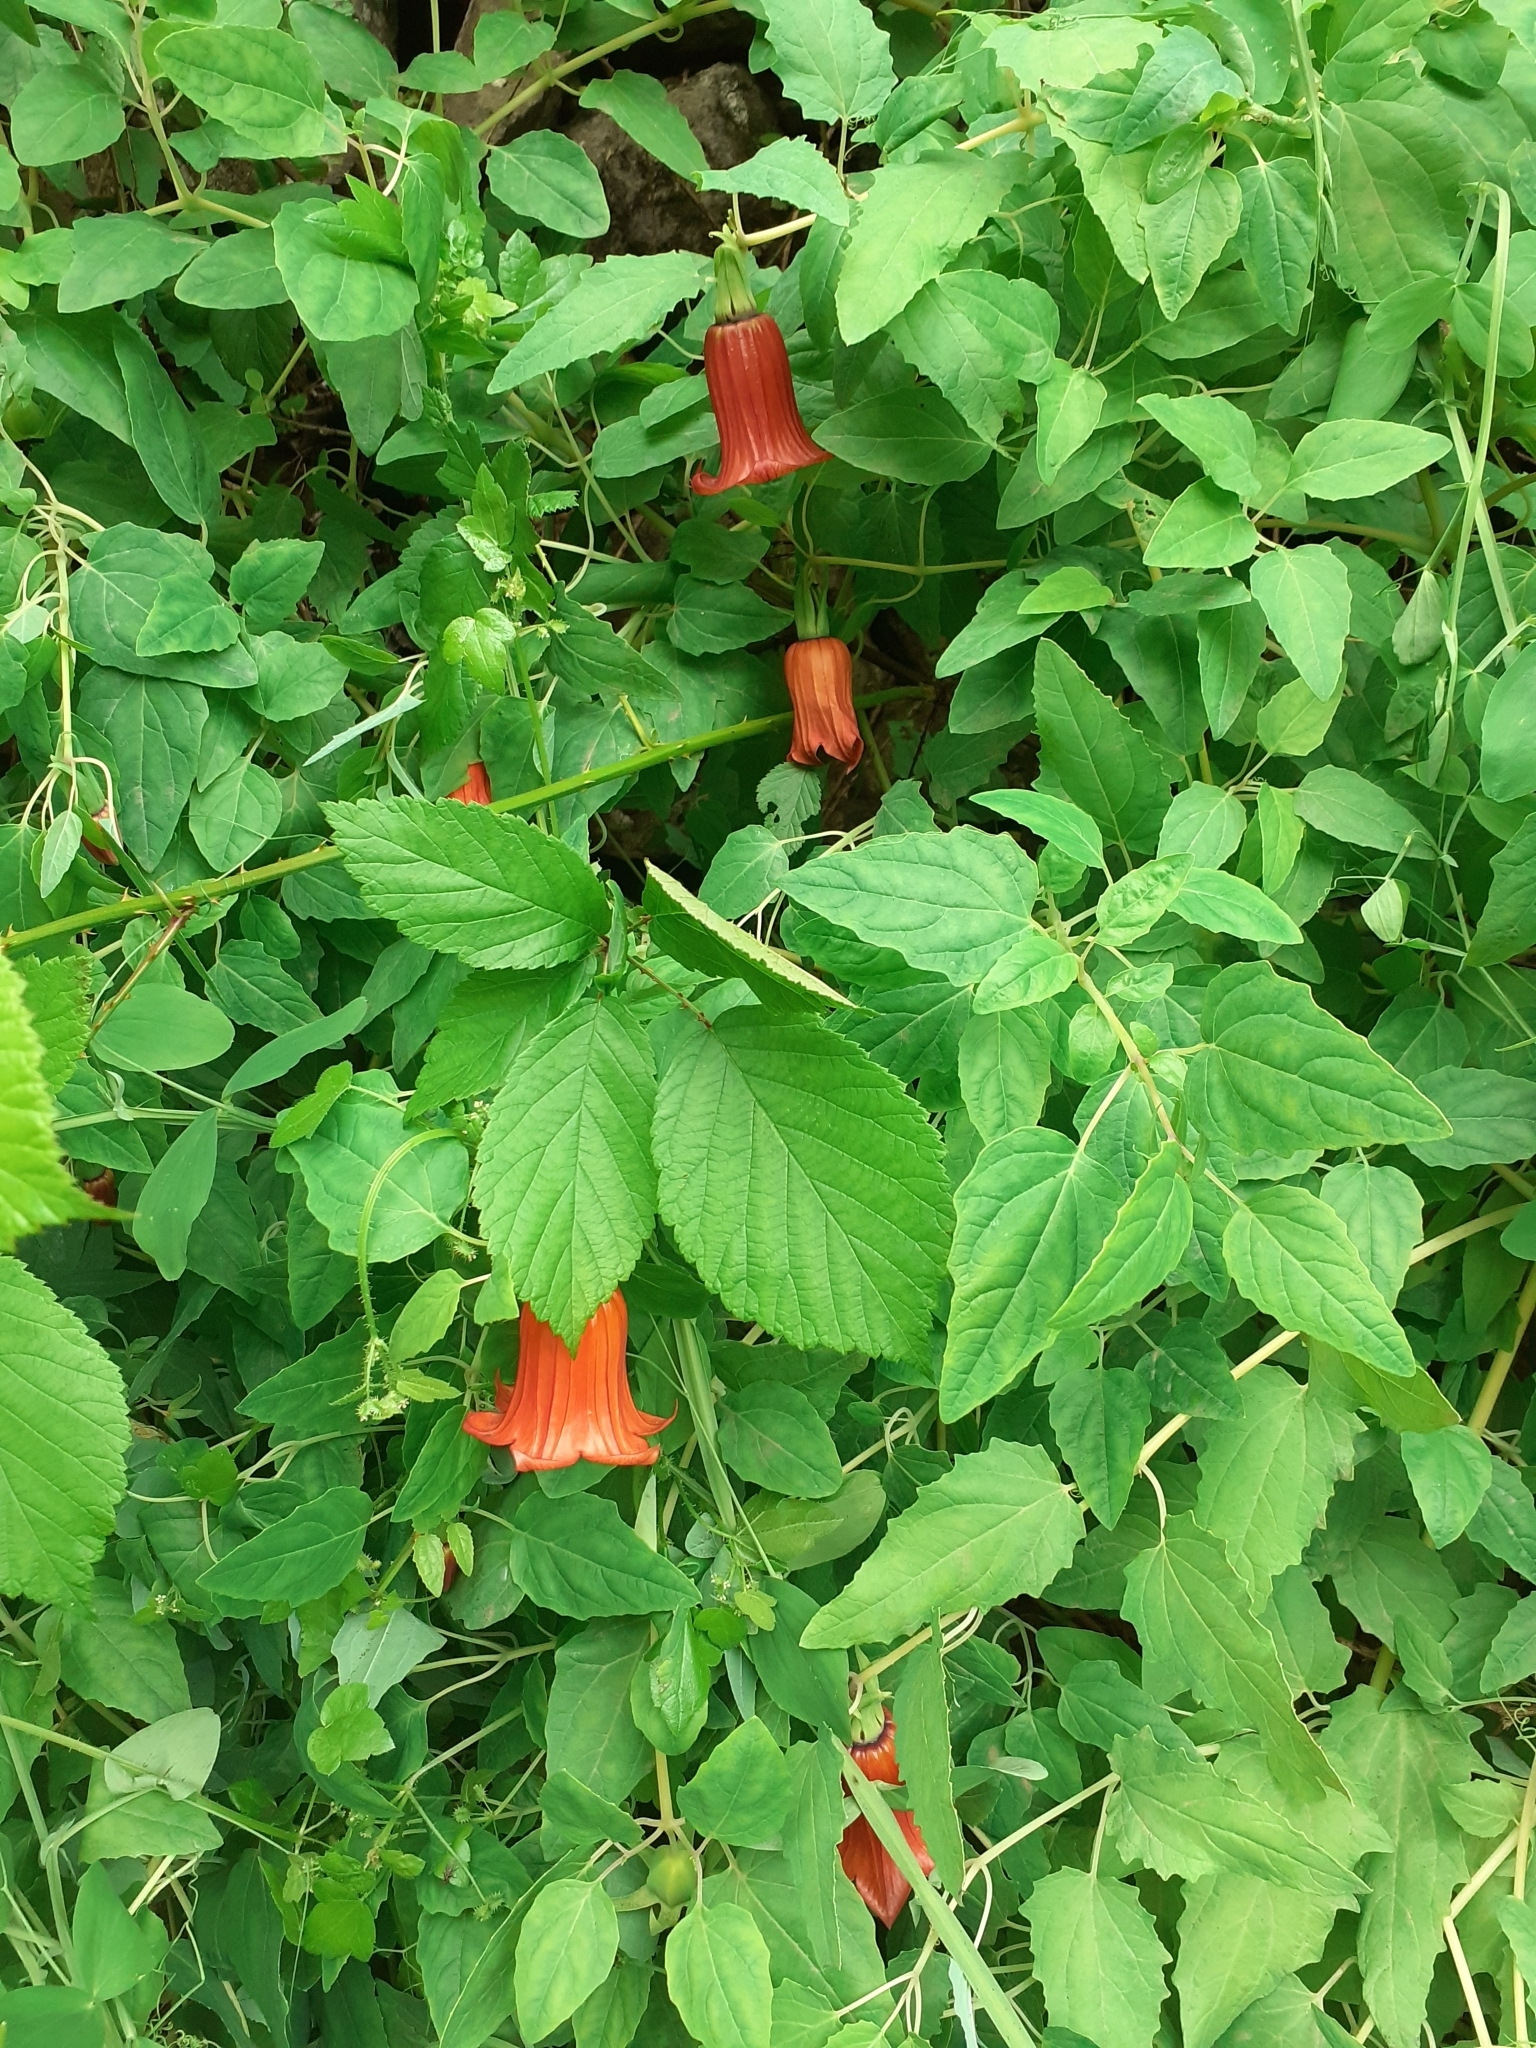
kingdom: Plantae
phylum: Tracheophyta
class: Magnoliopsida
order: Asterales
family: Campanulaceae
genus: Canarina
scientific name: Canarina canariensis
